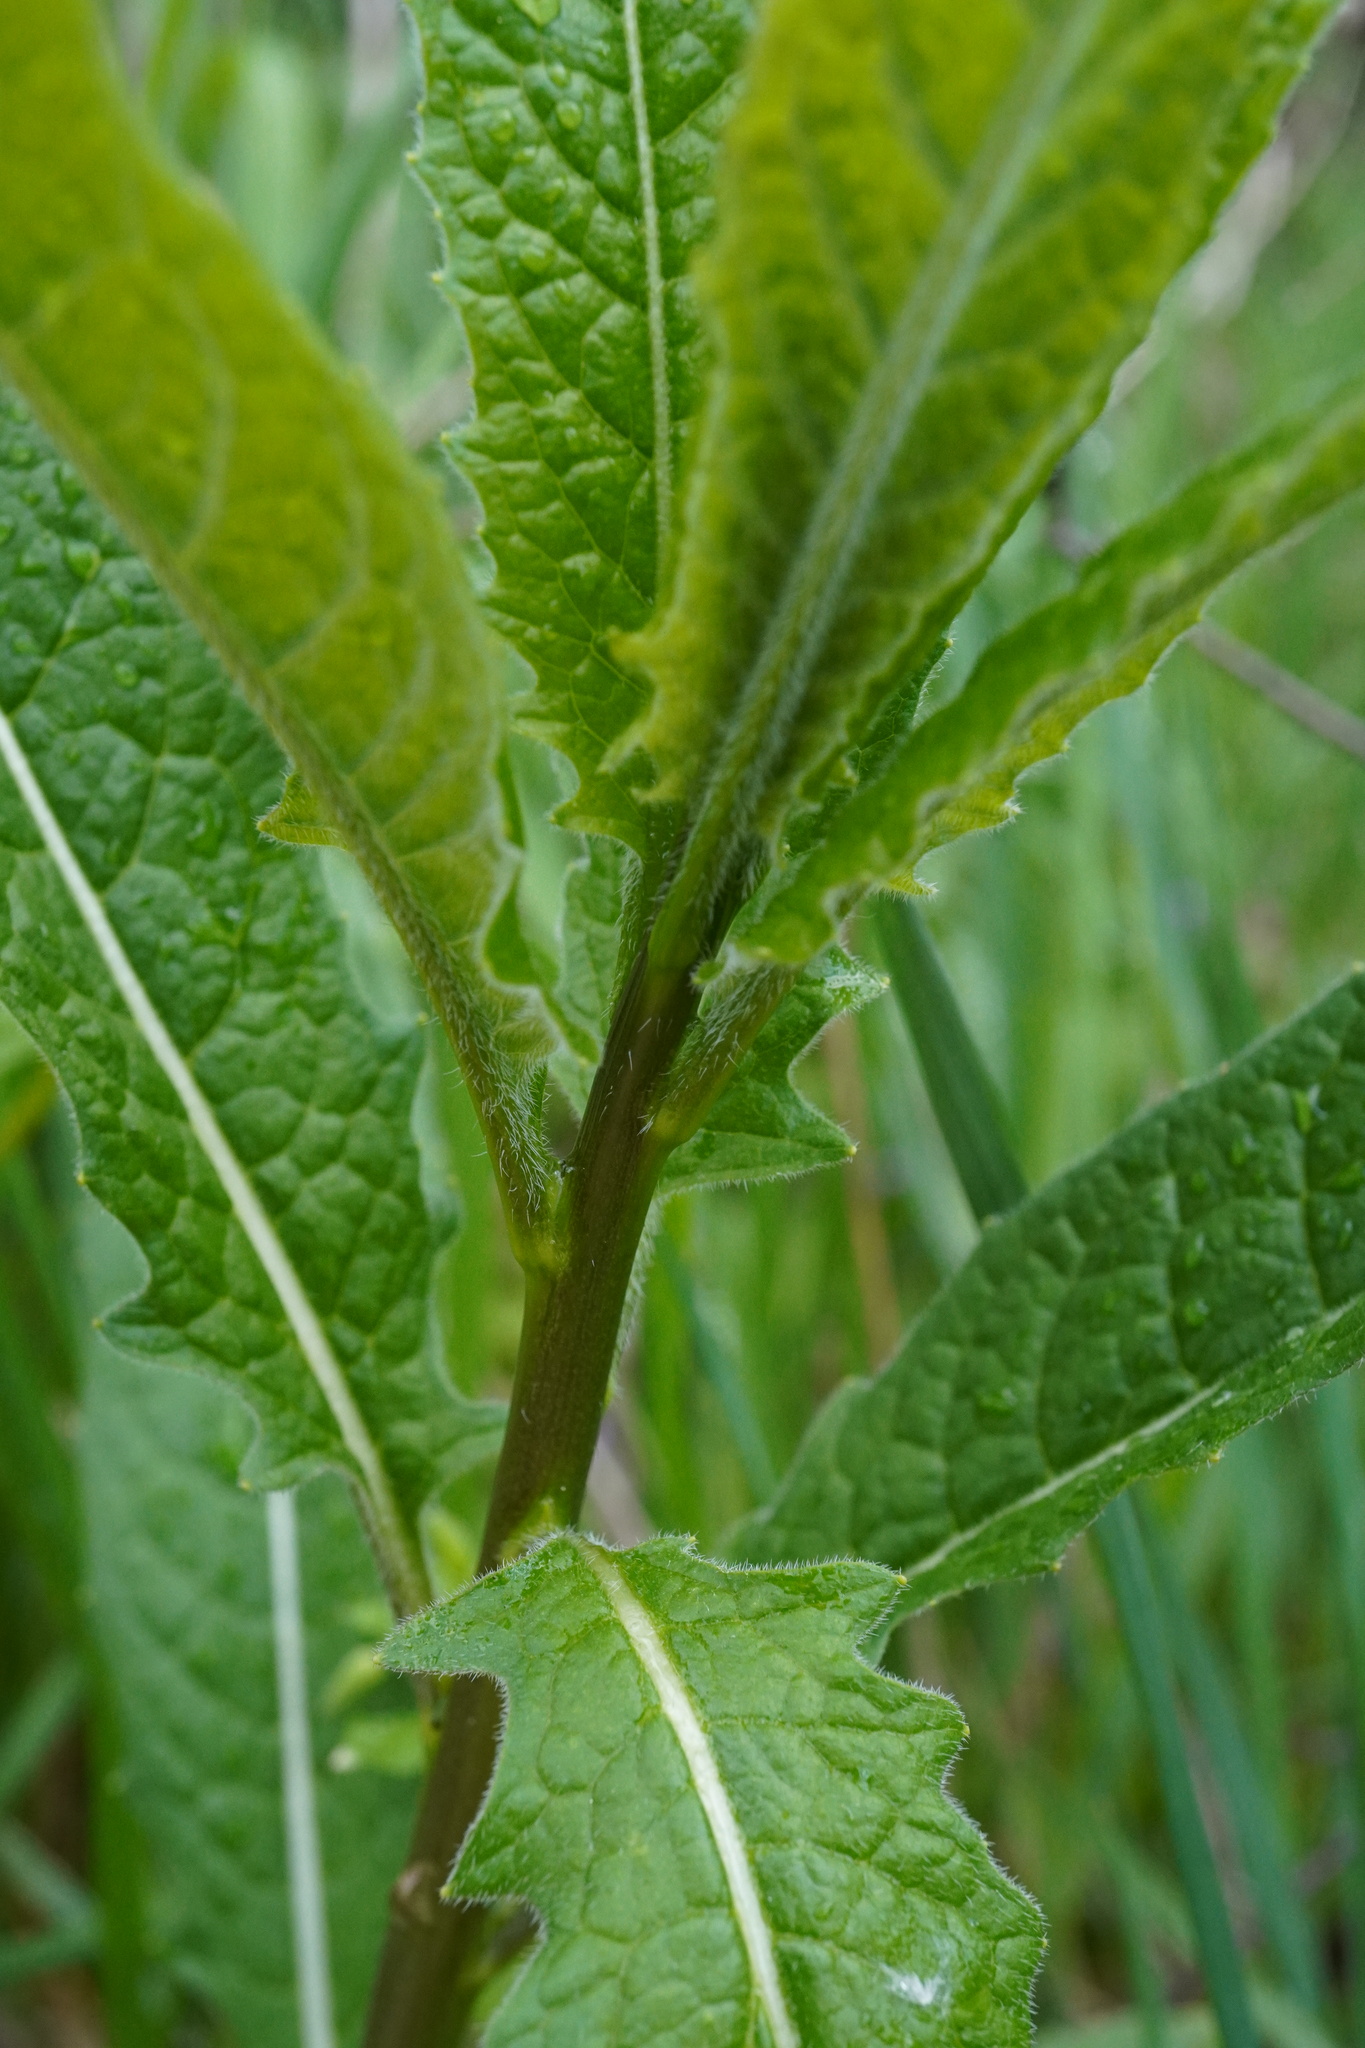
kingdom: Plantae
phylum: Tracheophyta
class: Magnoliopsida
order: Brassicales
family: Brassicaceae
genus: Sisymbrium
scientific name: Sisymbrium strictissimum
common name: Perennial rocket
